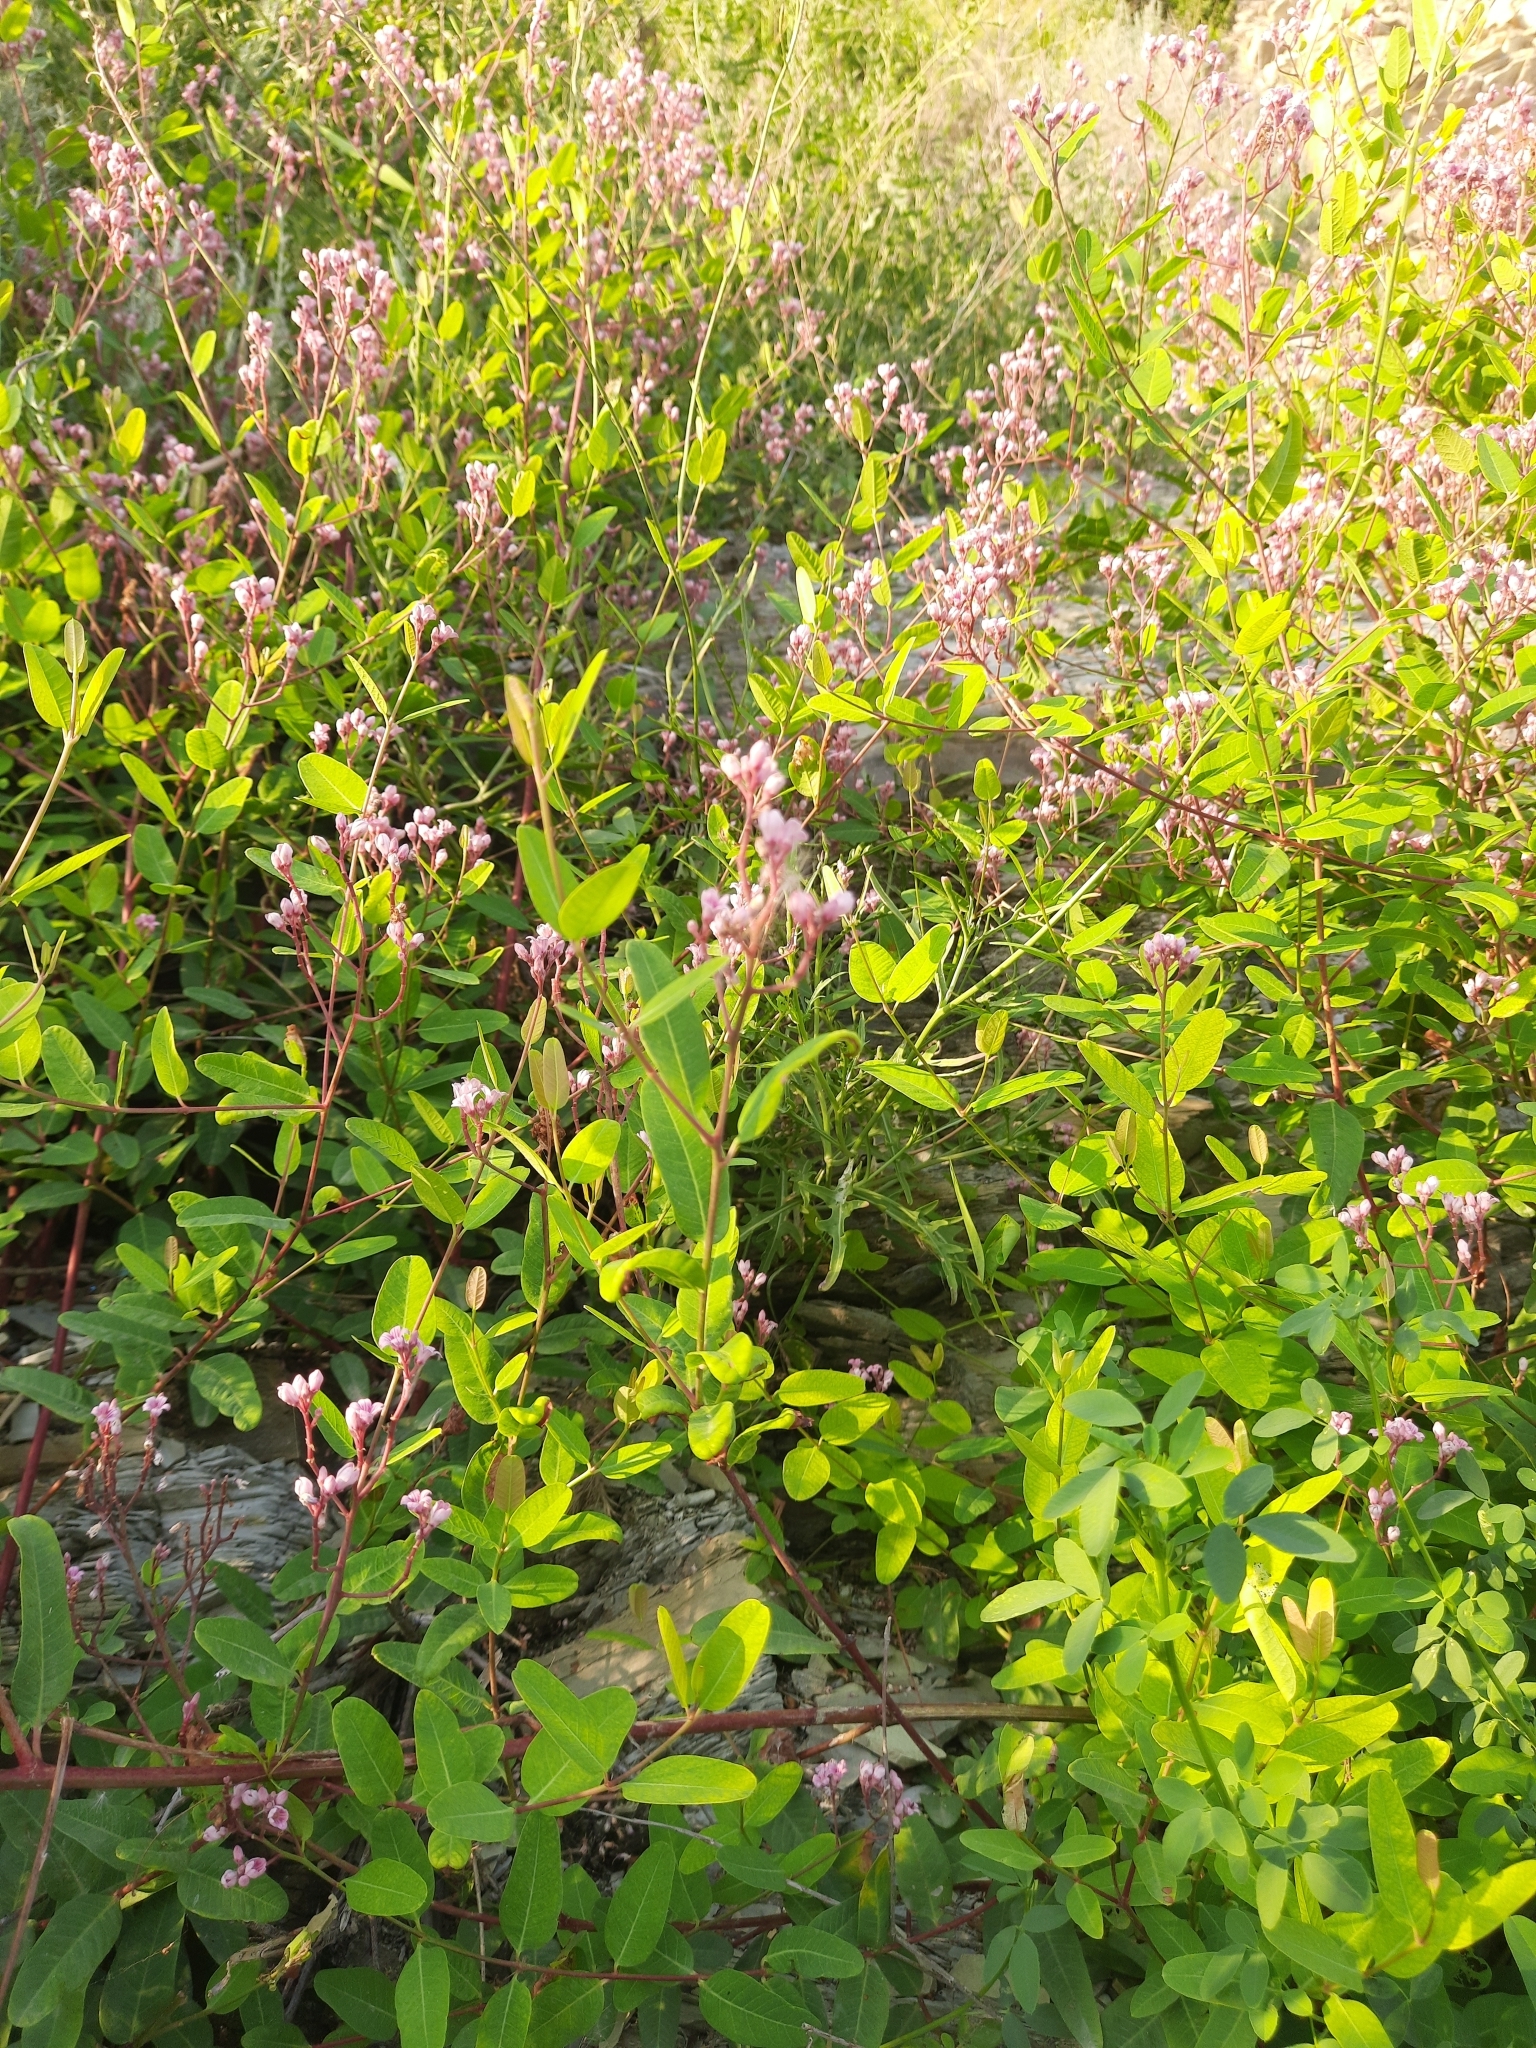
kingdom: Plantae
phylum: Tracheophyta
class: Magnoliopsida
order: Gentianales
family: Apocynaceae
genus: Poacynum
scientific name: Poacynum venetum
